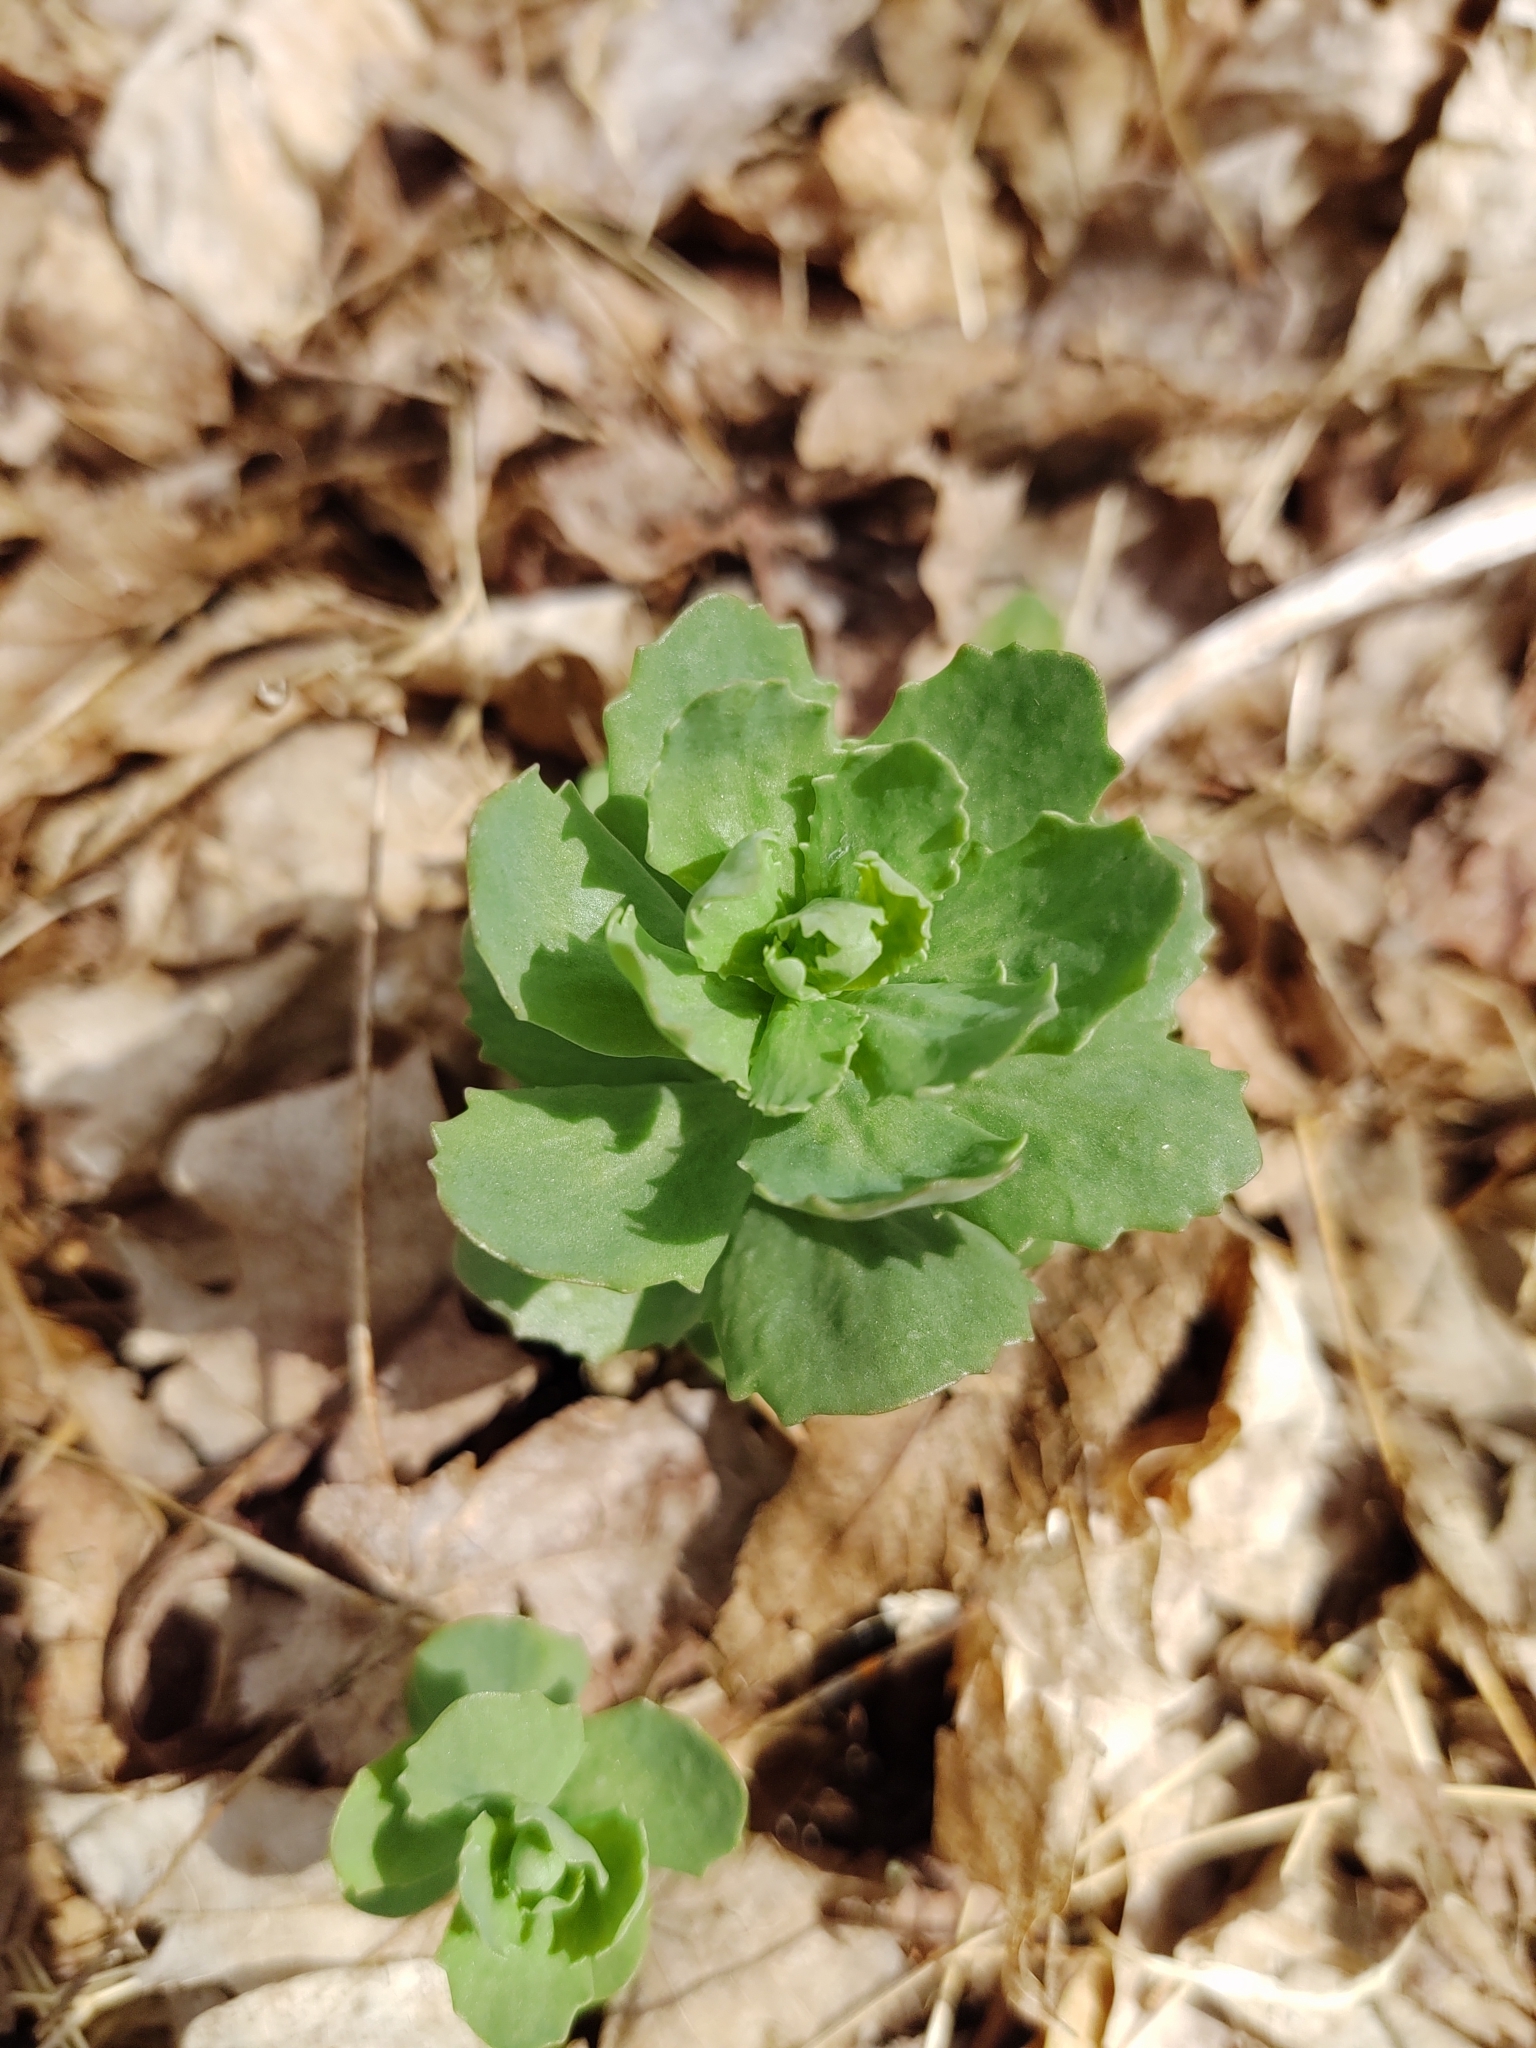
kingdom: Plantae
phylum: Tracheophyta
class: Magnoliopsida
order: Saxifragales
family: Crassulaceae
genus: Hylotelephium
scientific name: Hylotelephium telephium
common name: Live-forever
